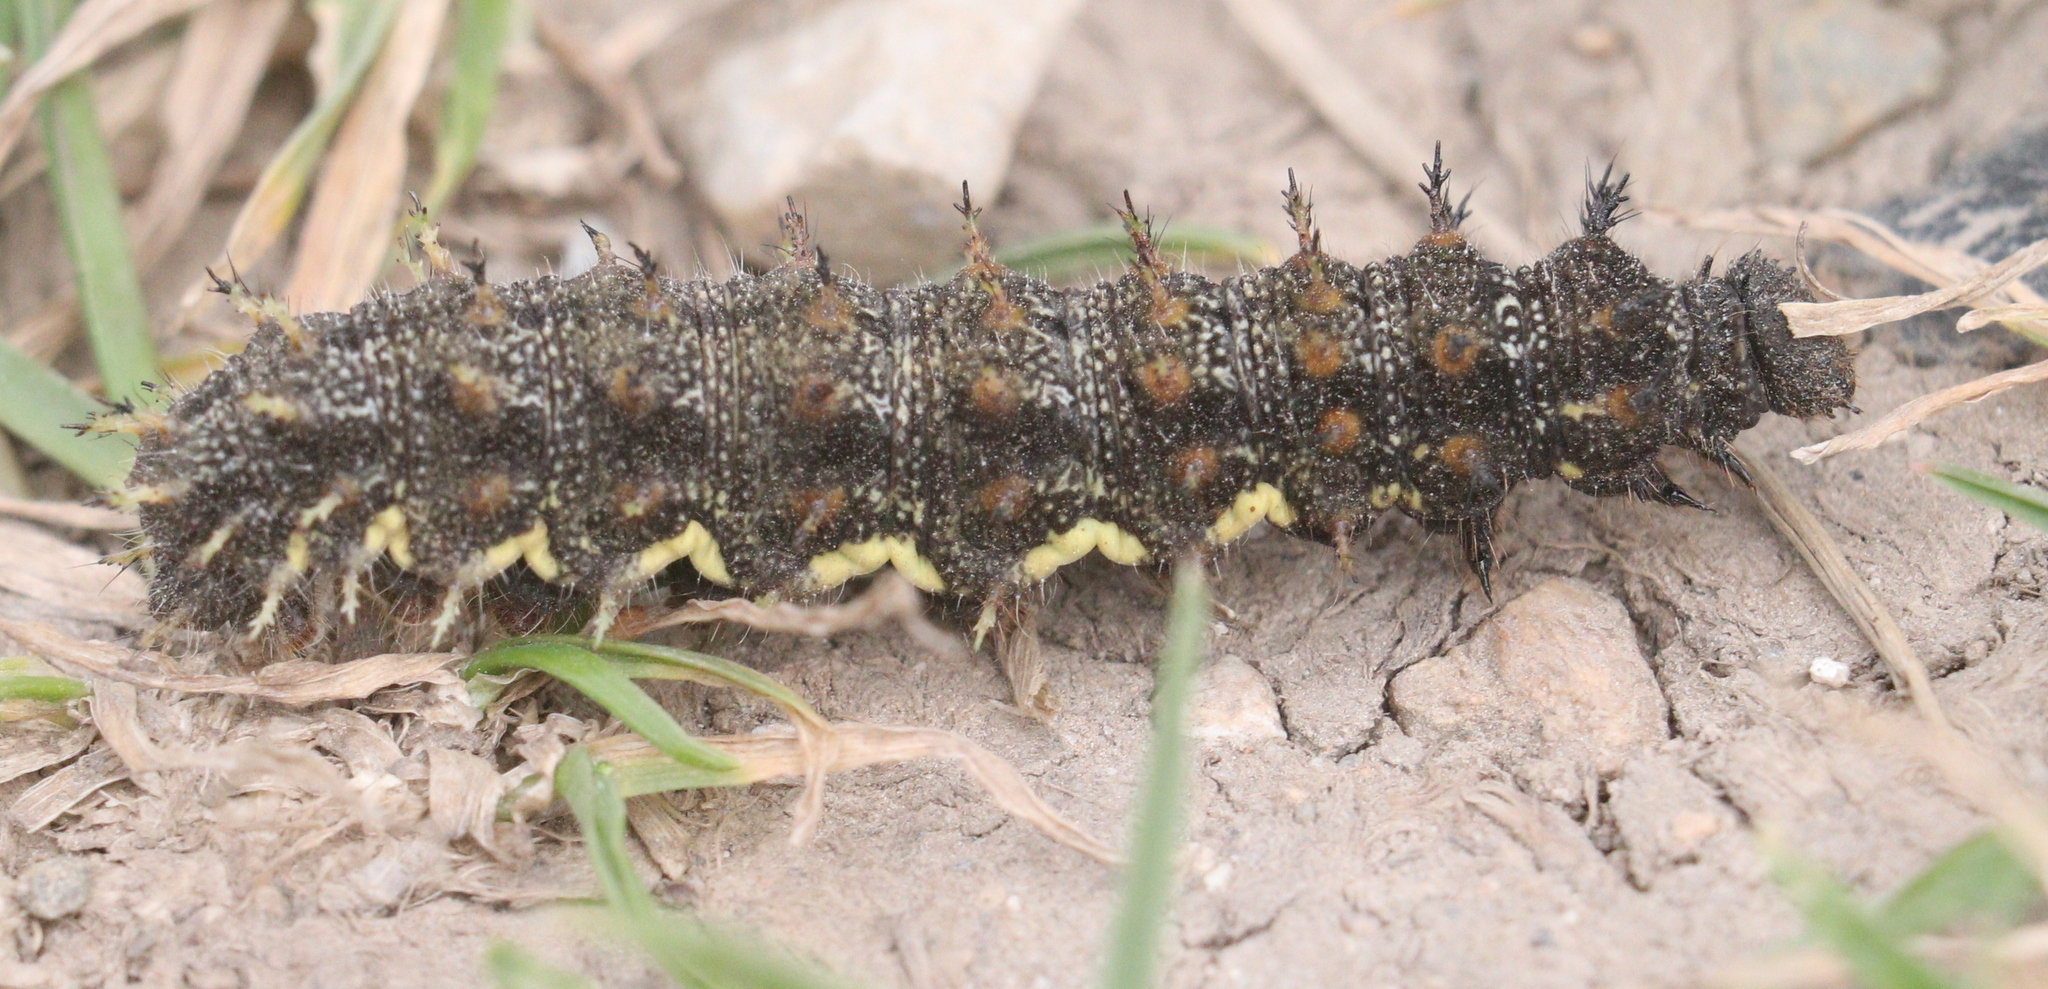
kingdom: Animalia
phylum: Arthropoda
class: Insecta
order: Lepidoptera
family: Nymphalidae
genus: Vanessa
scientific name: Vanessa atalanta
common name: Red admiral
